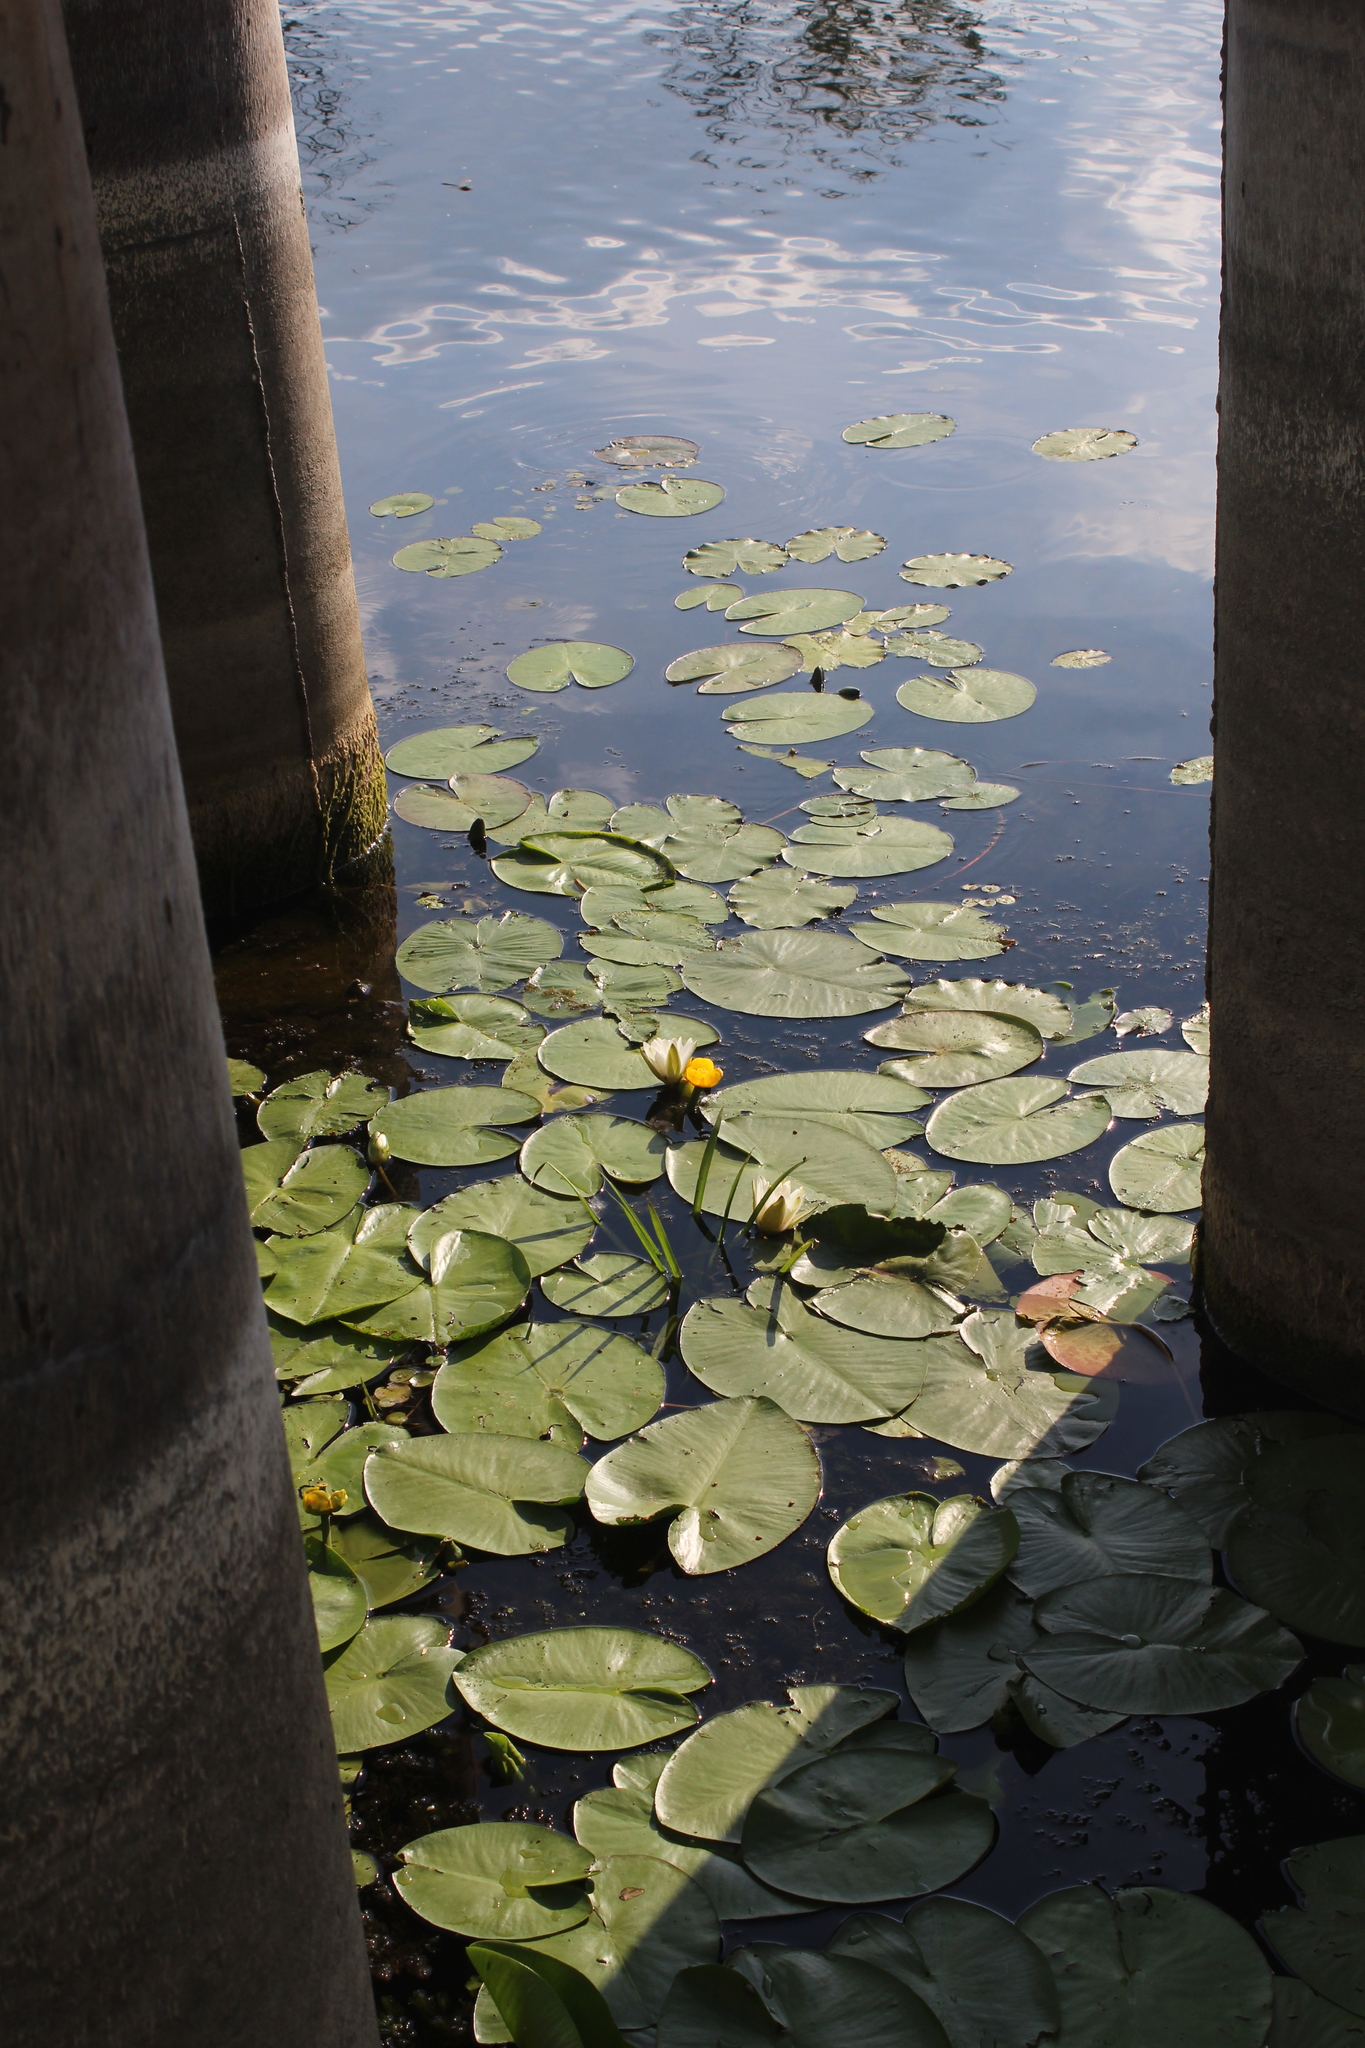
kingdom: Plantae
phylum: Tracheophyta
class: Magnoliopsida
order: Nymphaeales
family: Nymphaeaceae
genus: Nuphar
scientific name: Nuphar lutea
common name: Yellow water-lily
